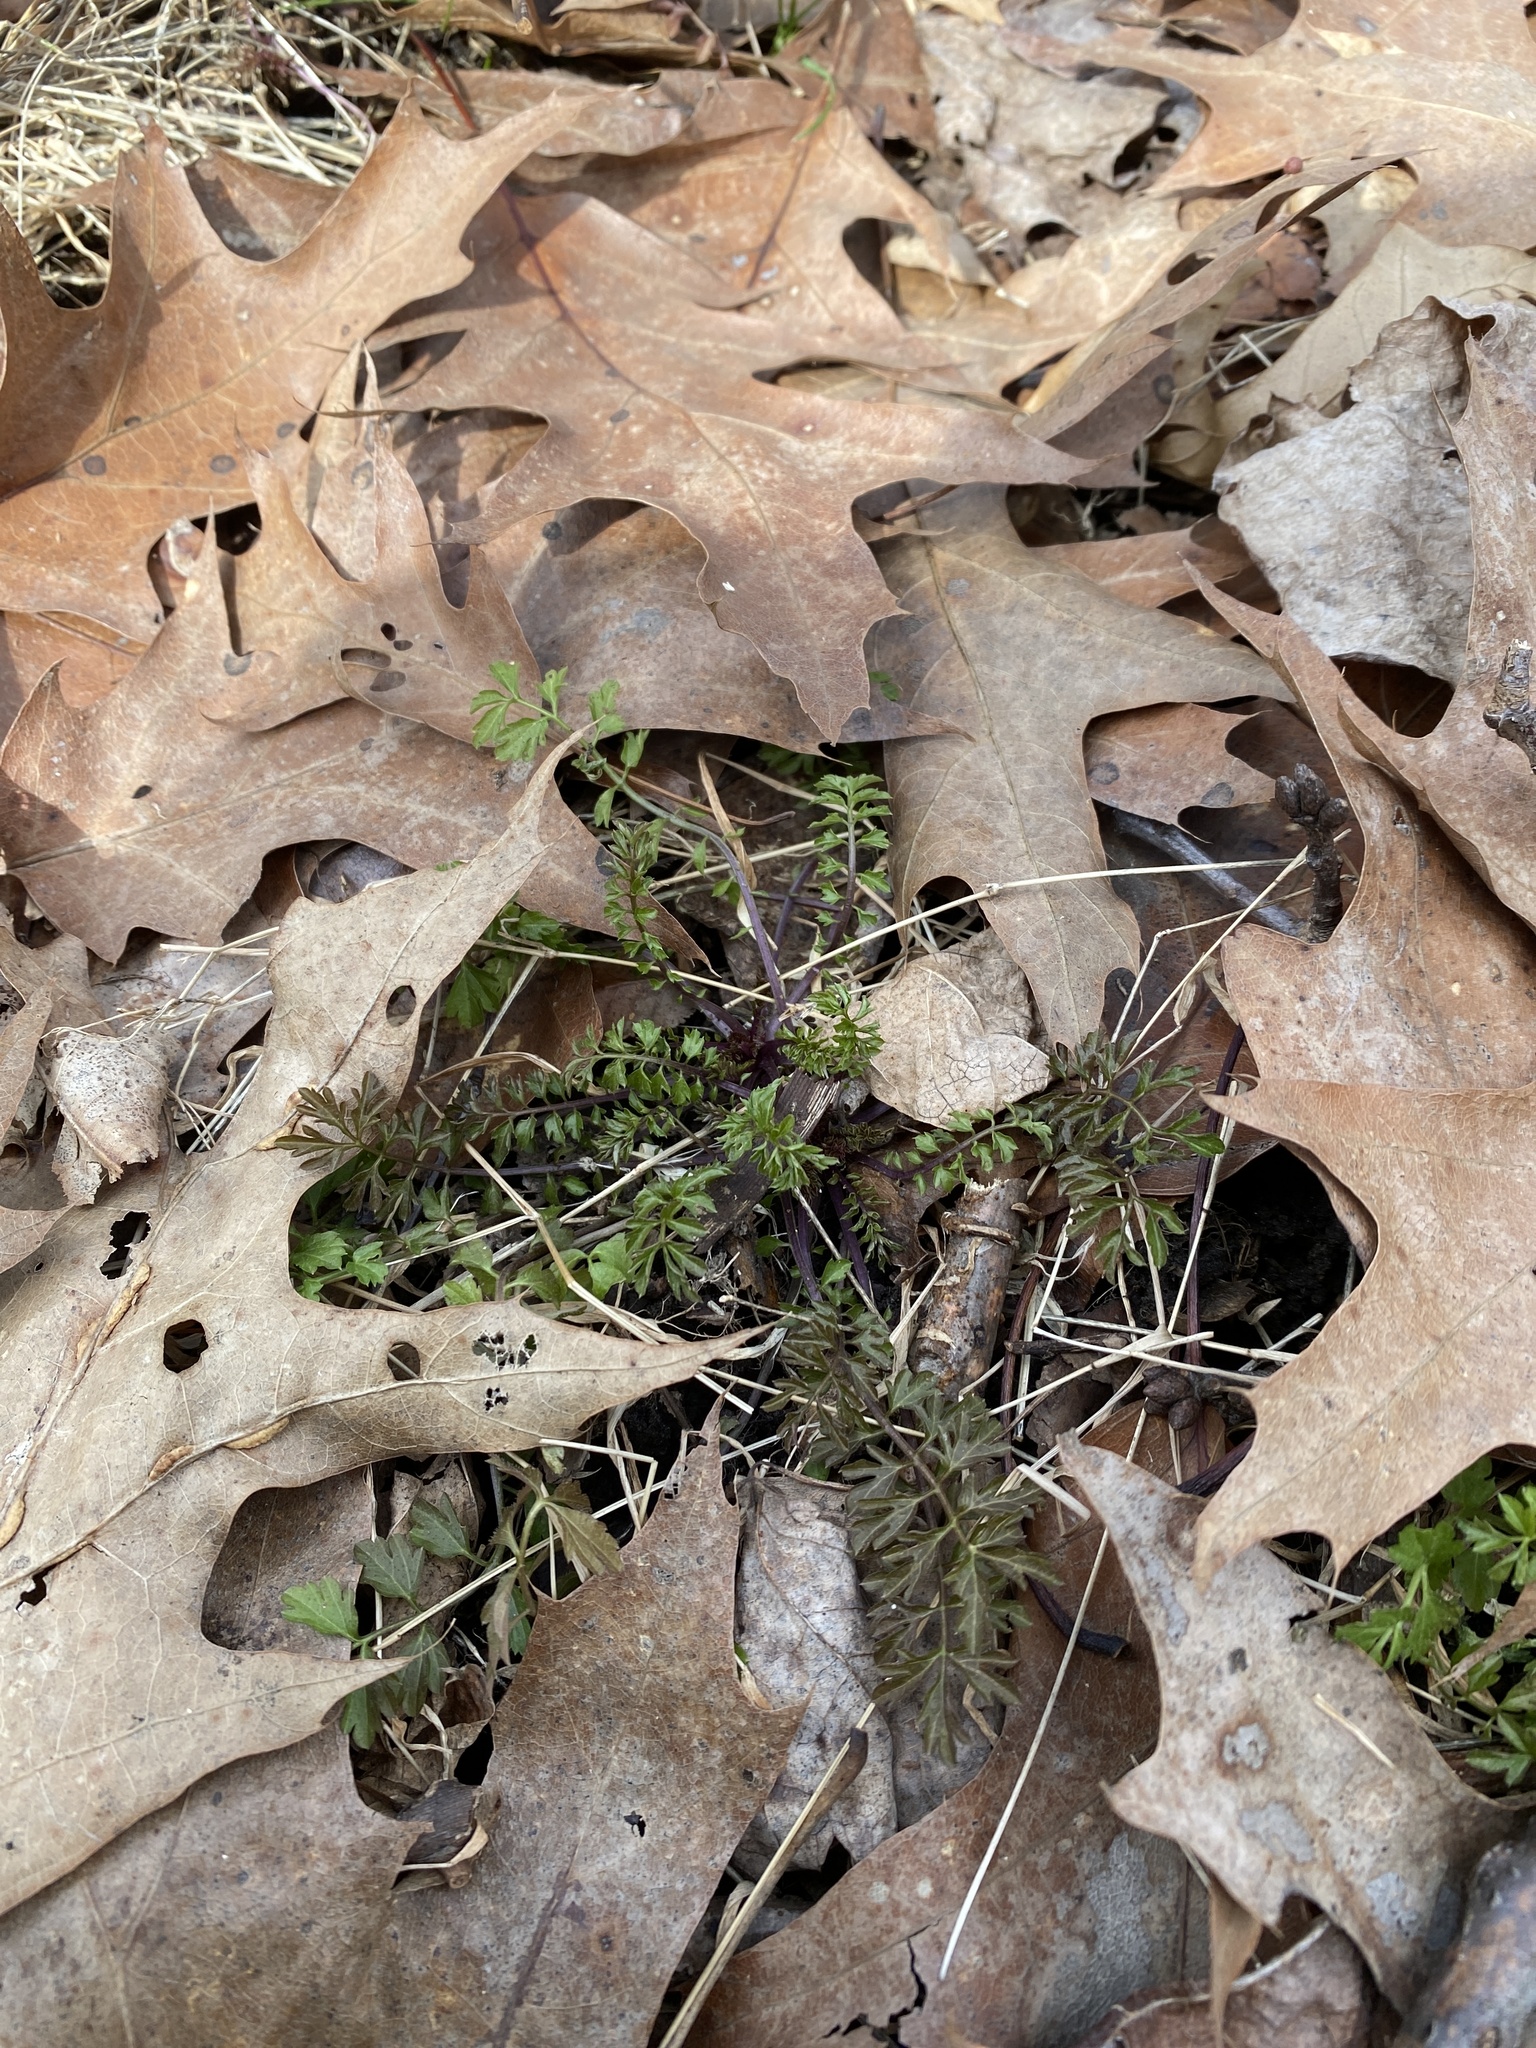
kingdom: Plantae
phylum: Tracheophyta
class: Magnoliopsida
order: Brassicales
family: Brassicaceae
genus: Cardamine
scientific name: Cardamine impatiens
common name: Narrow-leaved bitter-cress
